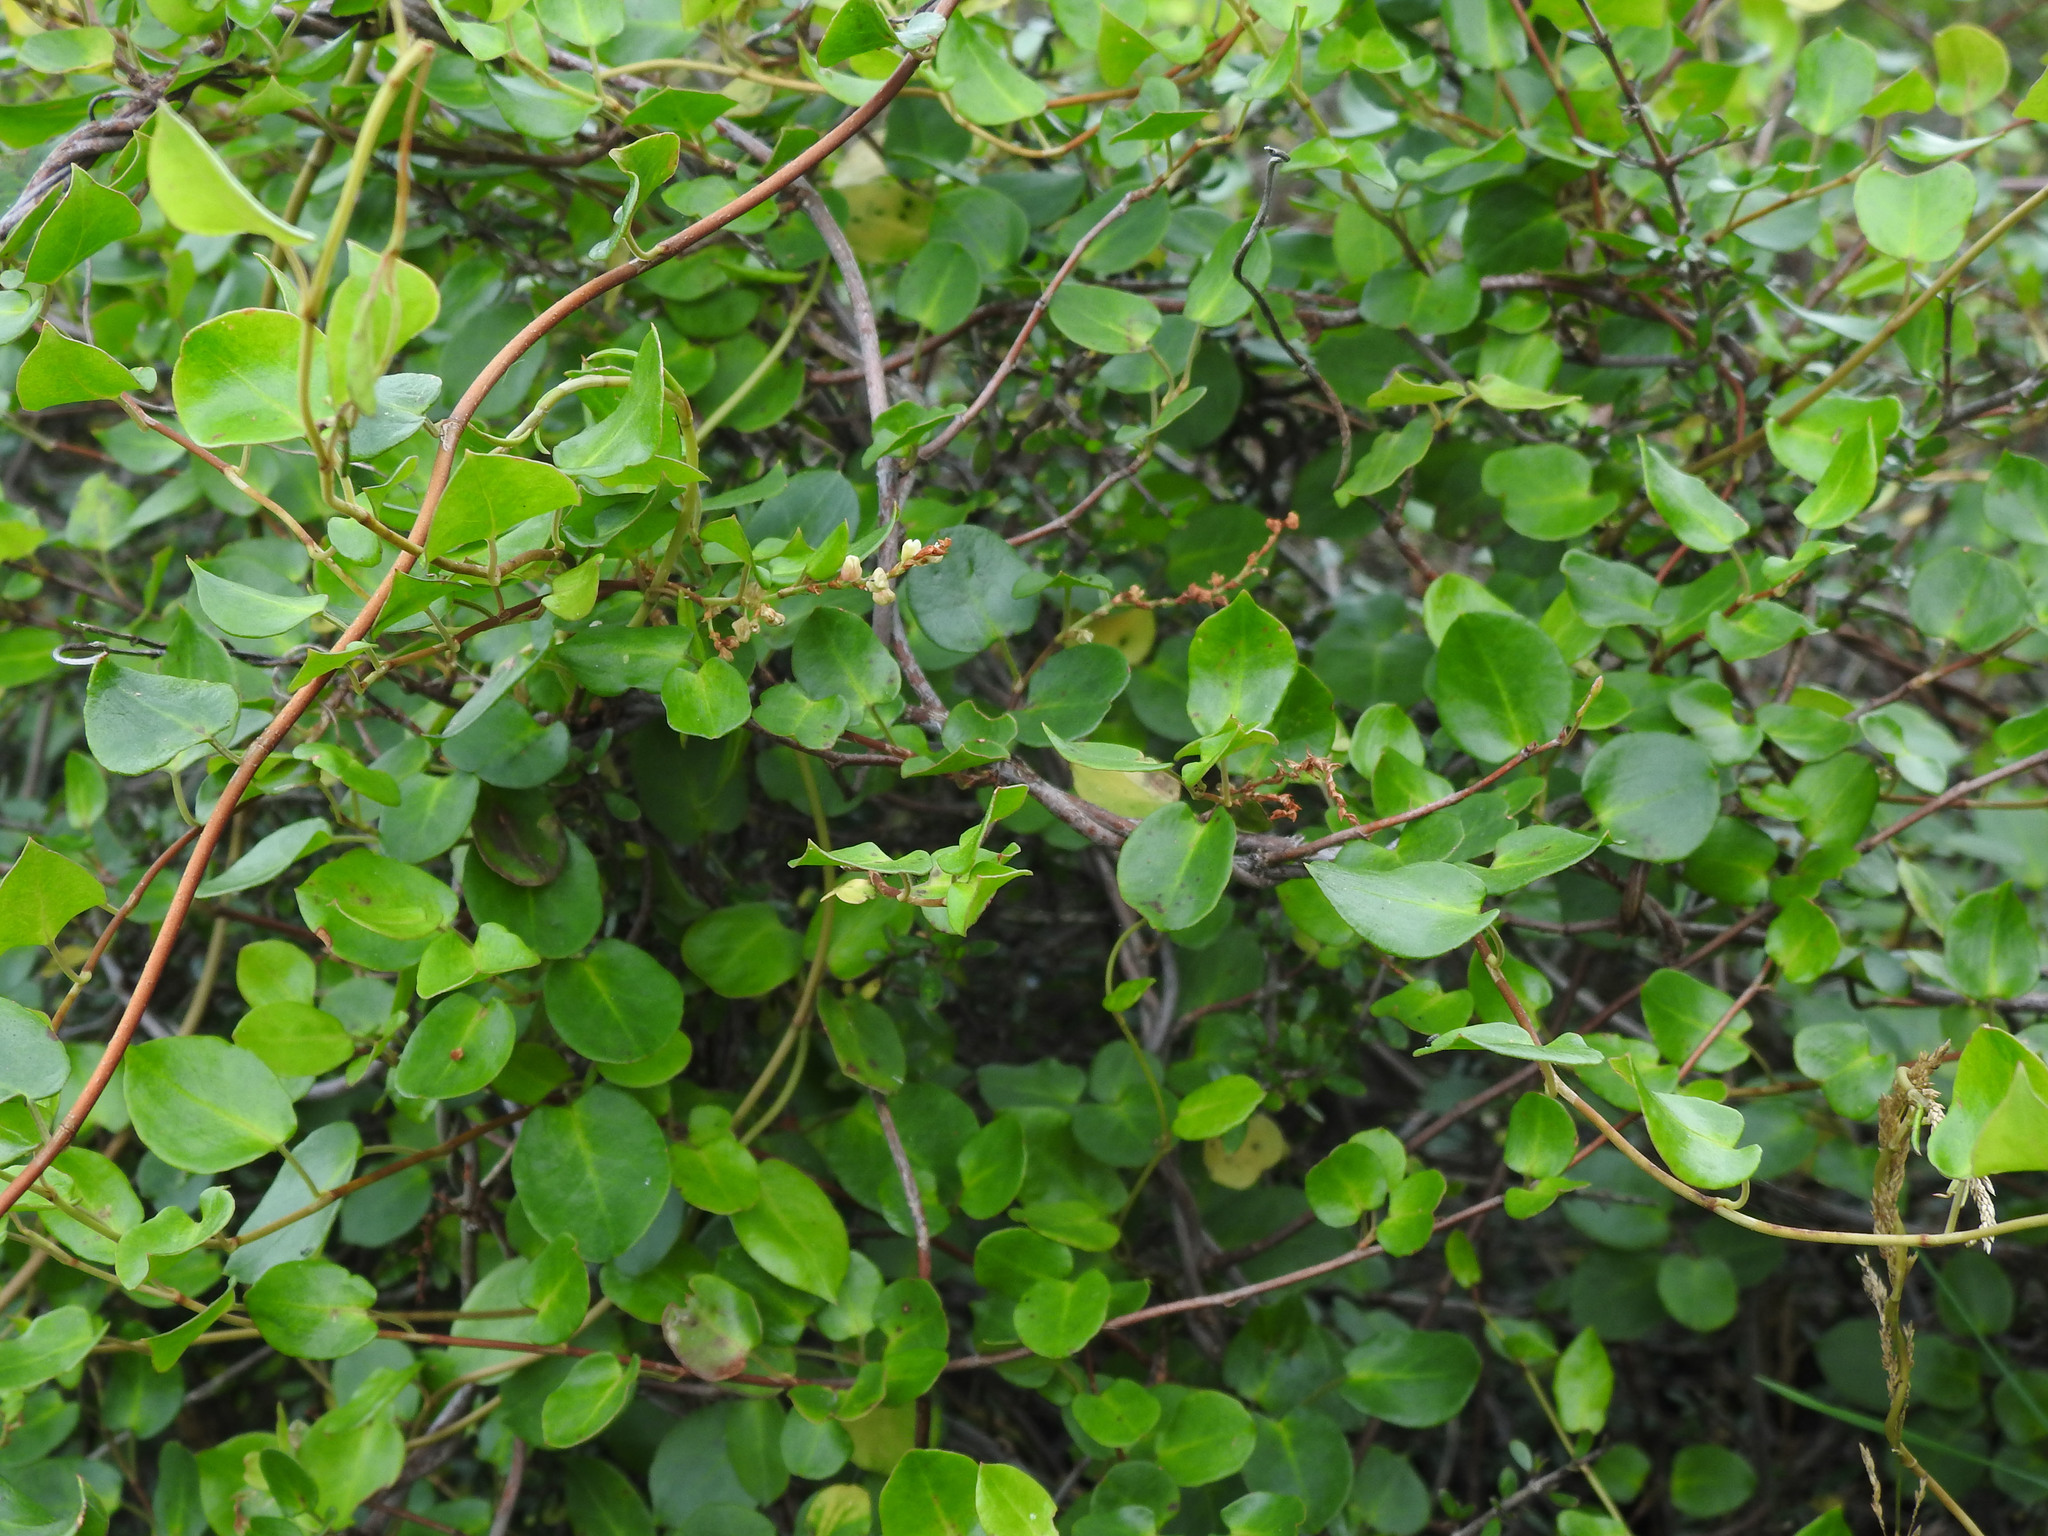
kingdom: Plantae
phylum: Tracheophyta
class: Magnoliopsida
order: Caryophyllales
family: Polygonaceae
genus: Muehlenbeckia
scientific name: Muehlenbeckia complexa
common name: Wireplant
